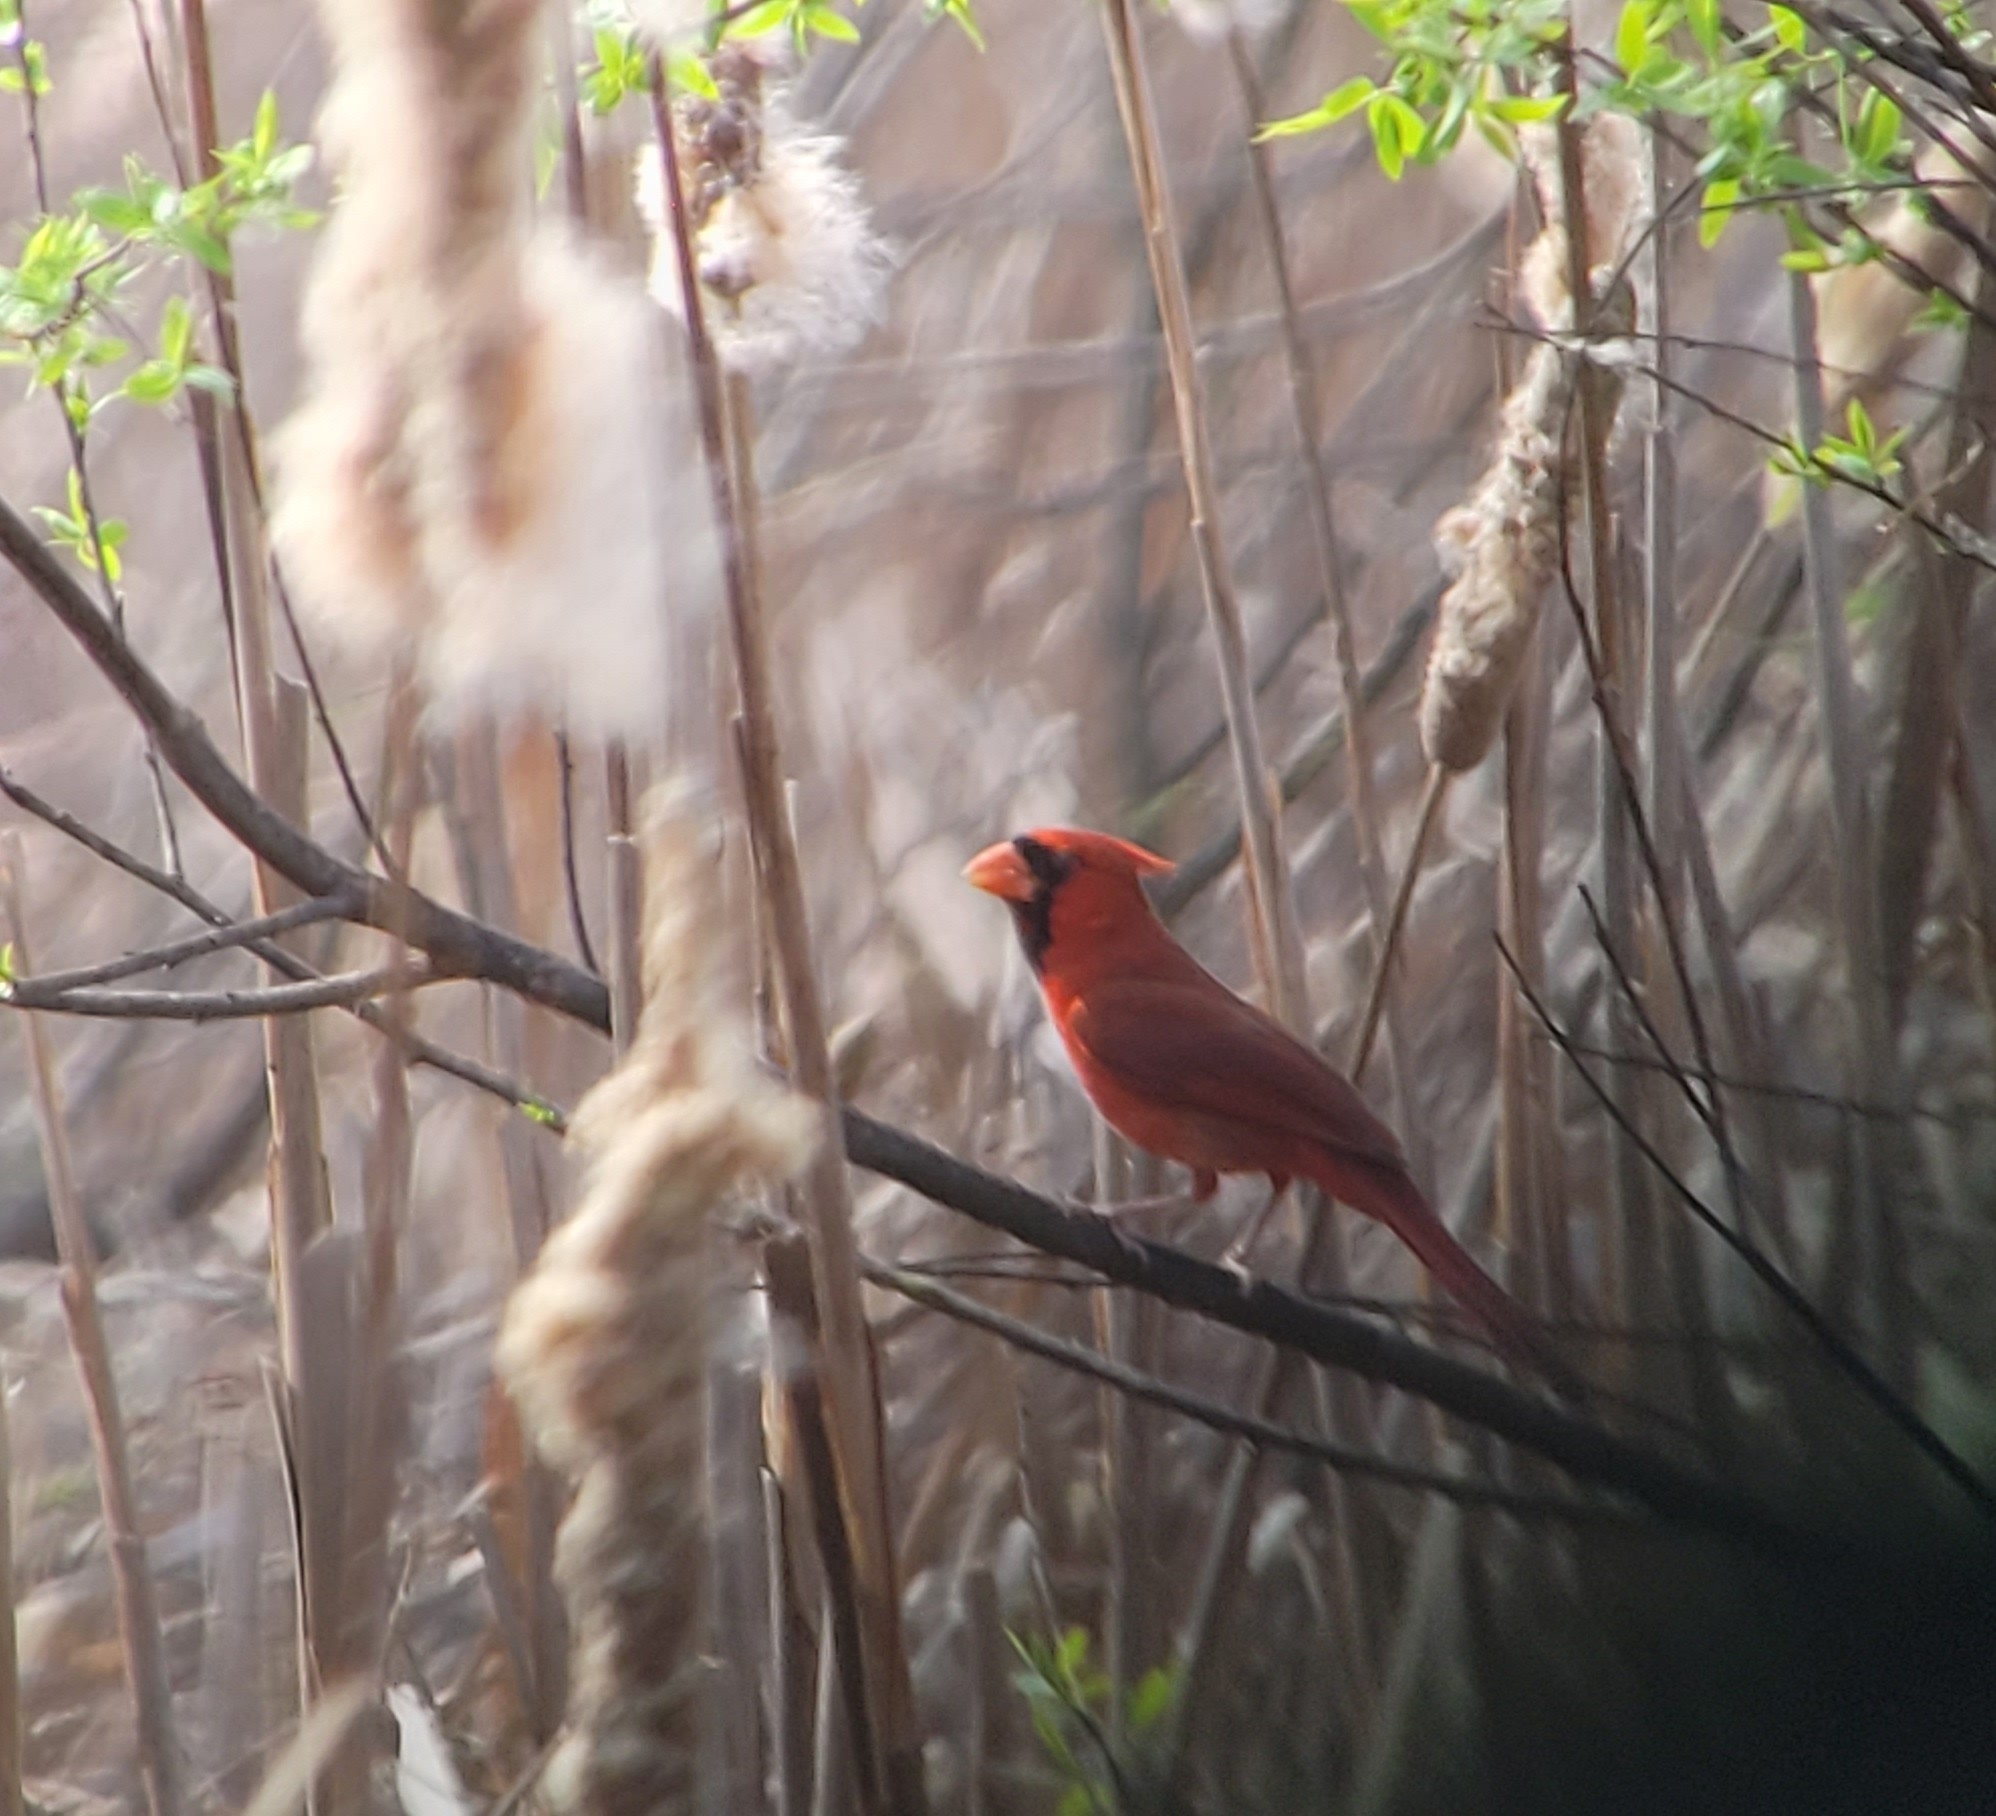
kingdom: Animalia
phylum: Chordata
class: Aves
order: Passeriformes
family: Cardinalidae
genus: Cardinalis
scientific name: Cardinalis cardinalis
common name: Northern cardinal
